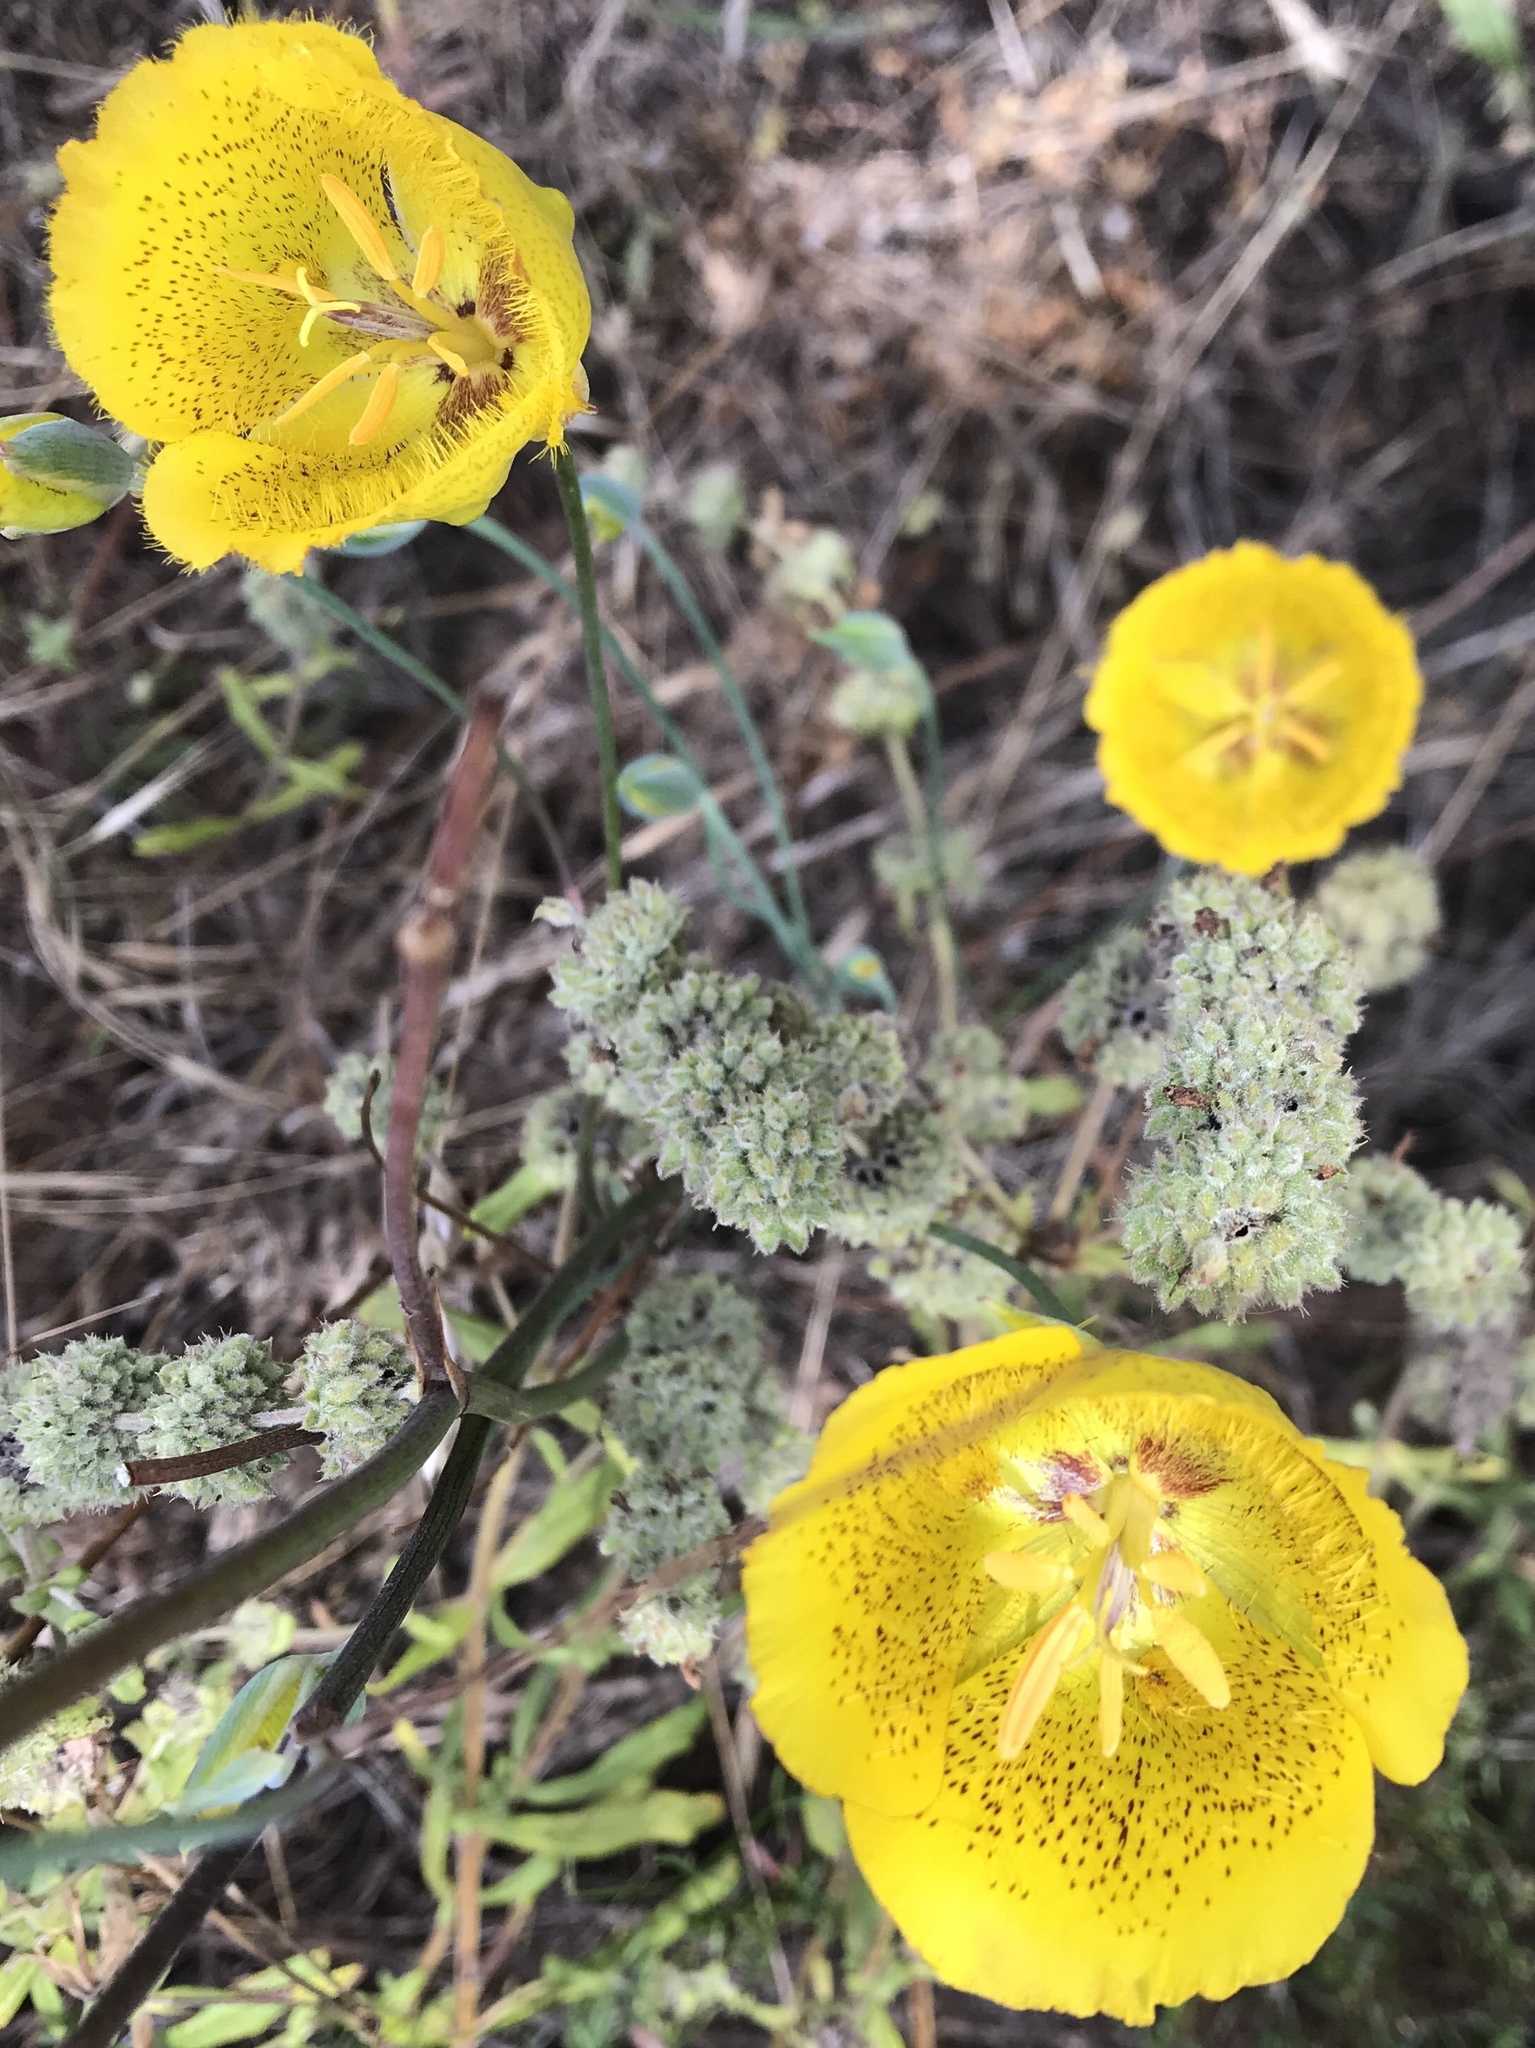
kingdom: Plantae
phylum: Tracheophyta
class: Liliopsida
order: Liliales
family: Liliaceae
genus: Calochortus
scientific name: Calochortus weedii
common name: Weed's mariposa-lily
